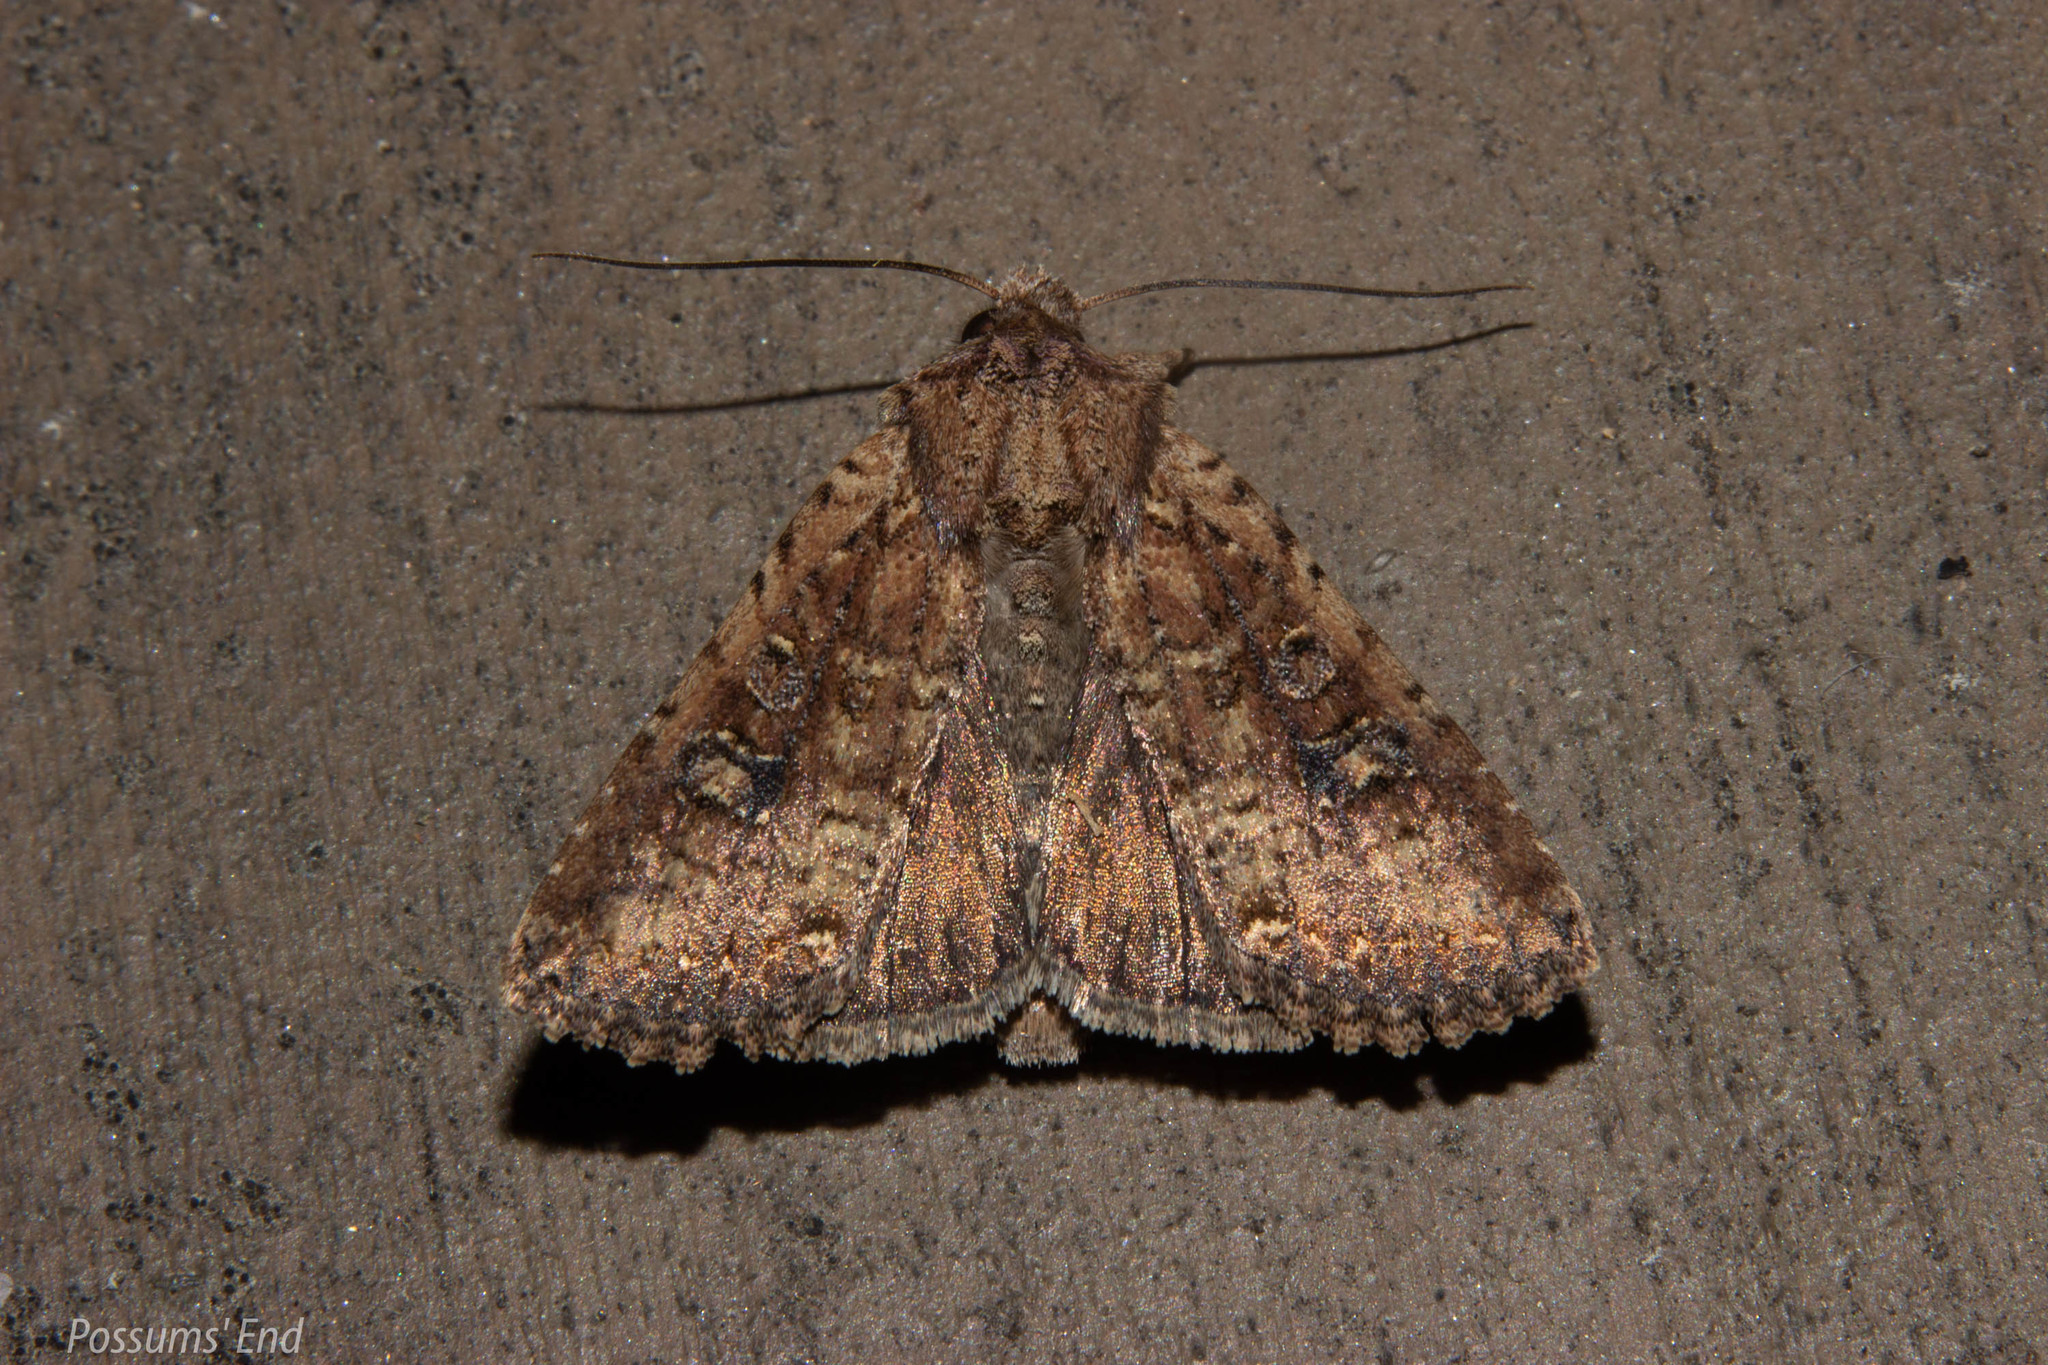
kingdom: Animalia
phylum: Arthropoda
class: Insecta
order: Lepidoptera
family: Noctuidae
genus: Ichneutica
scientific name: Ichneutica morosa
